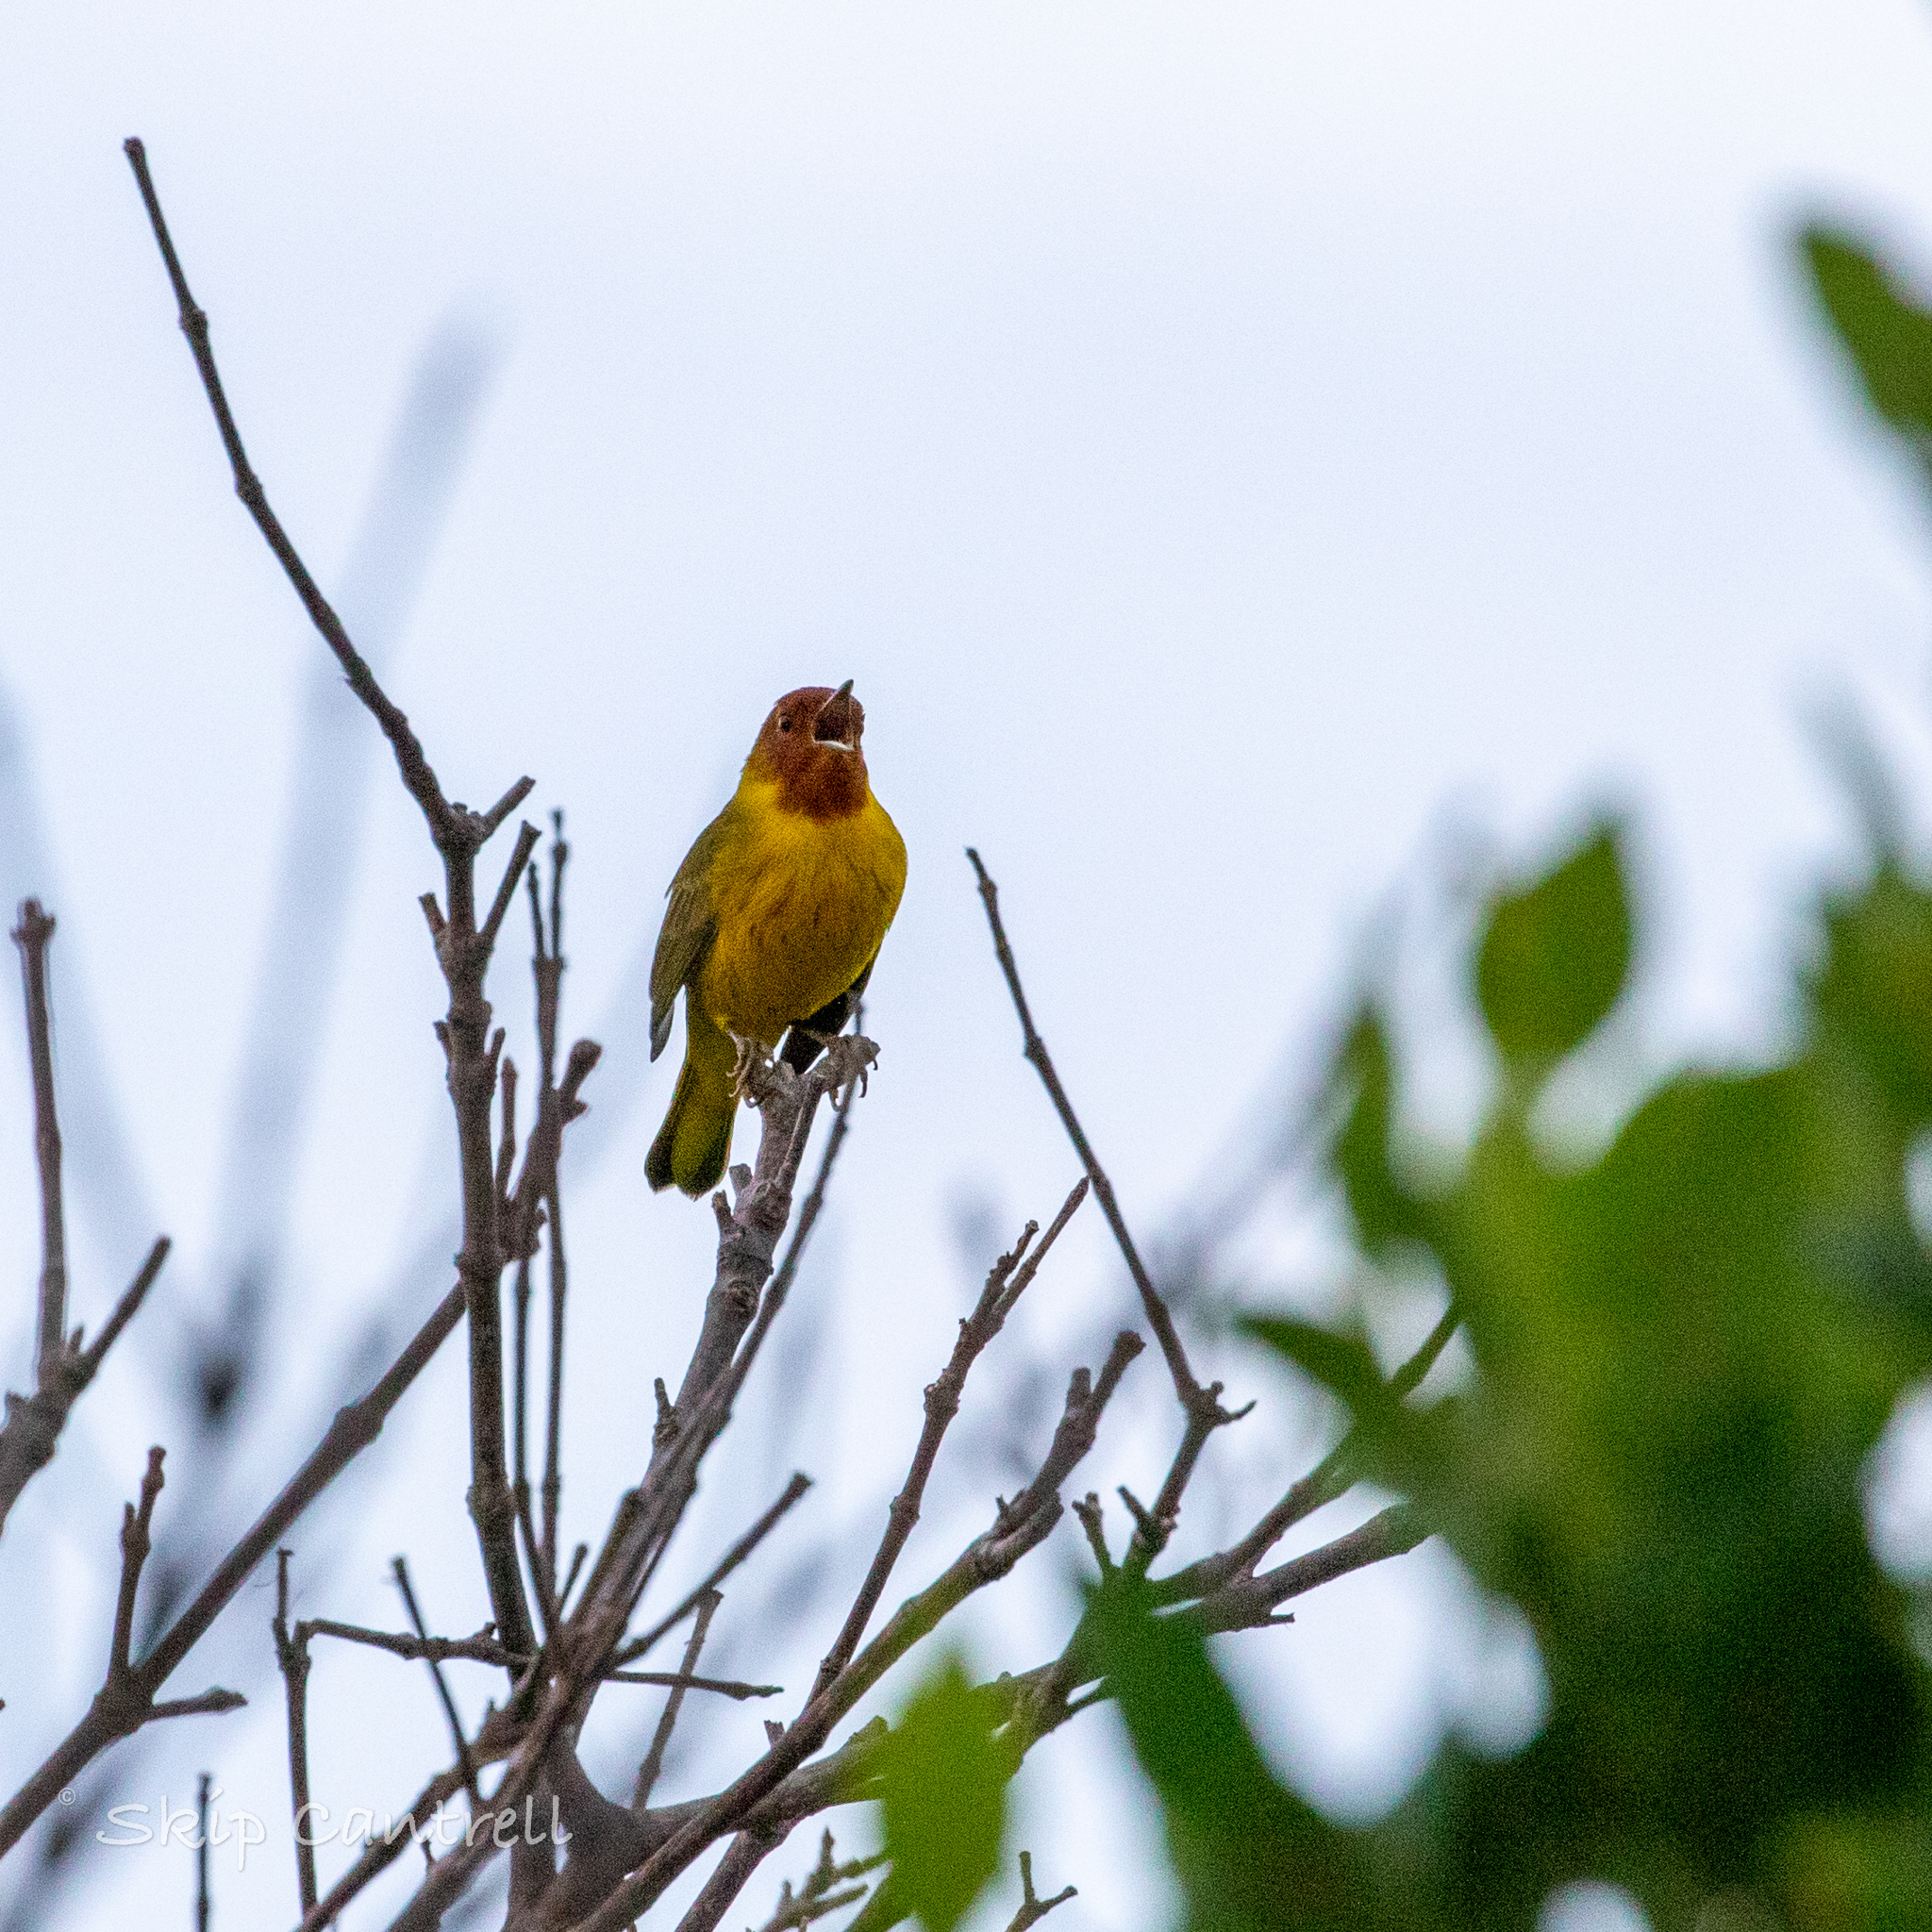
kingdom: Animalia
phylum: Chordata
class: Aves
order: Passeriformes
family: Parulidae
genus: Setophaga
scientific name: Setophaga petechia
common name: Yellow warbler
